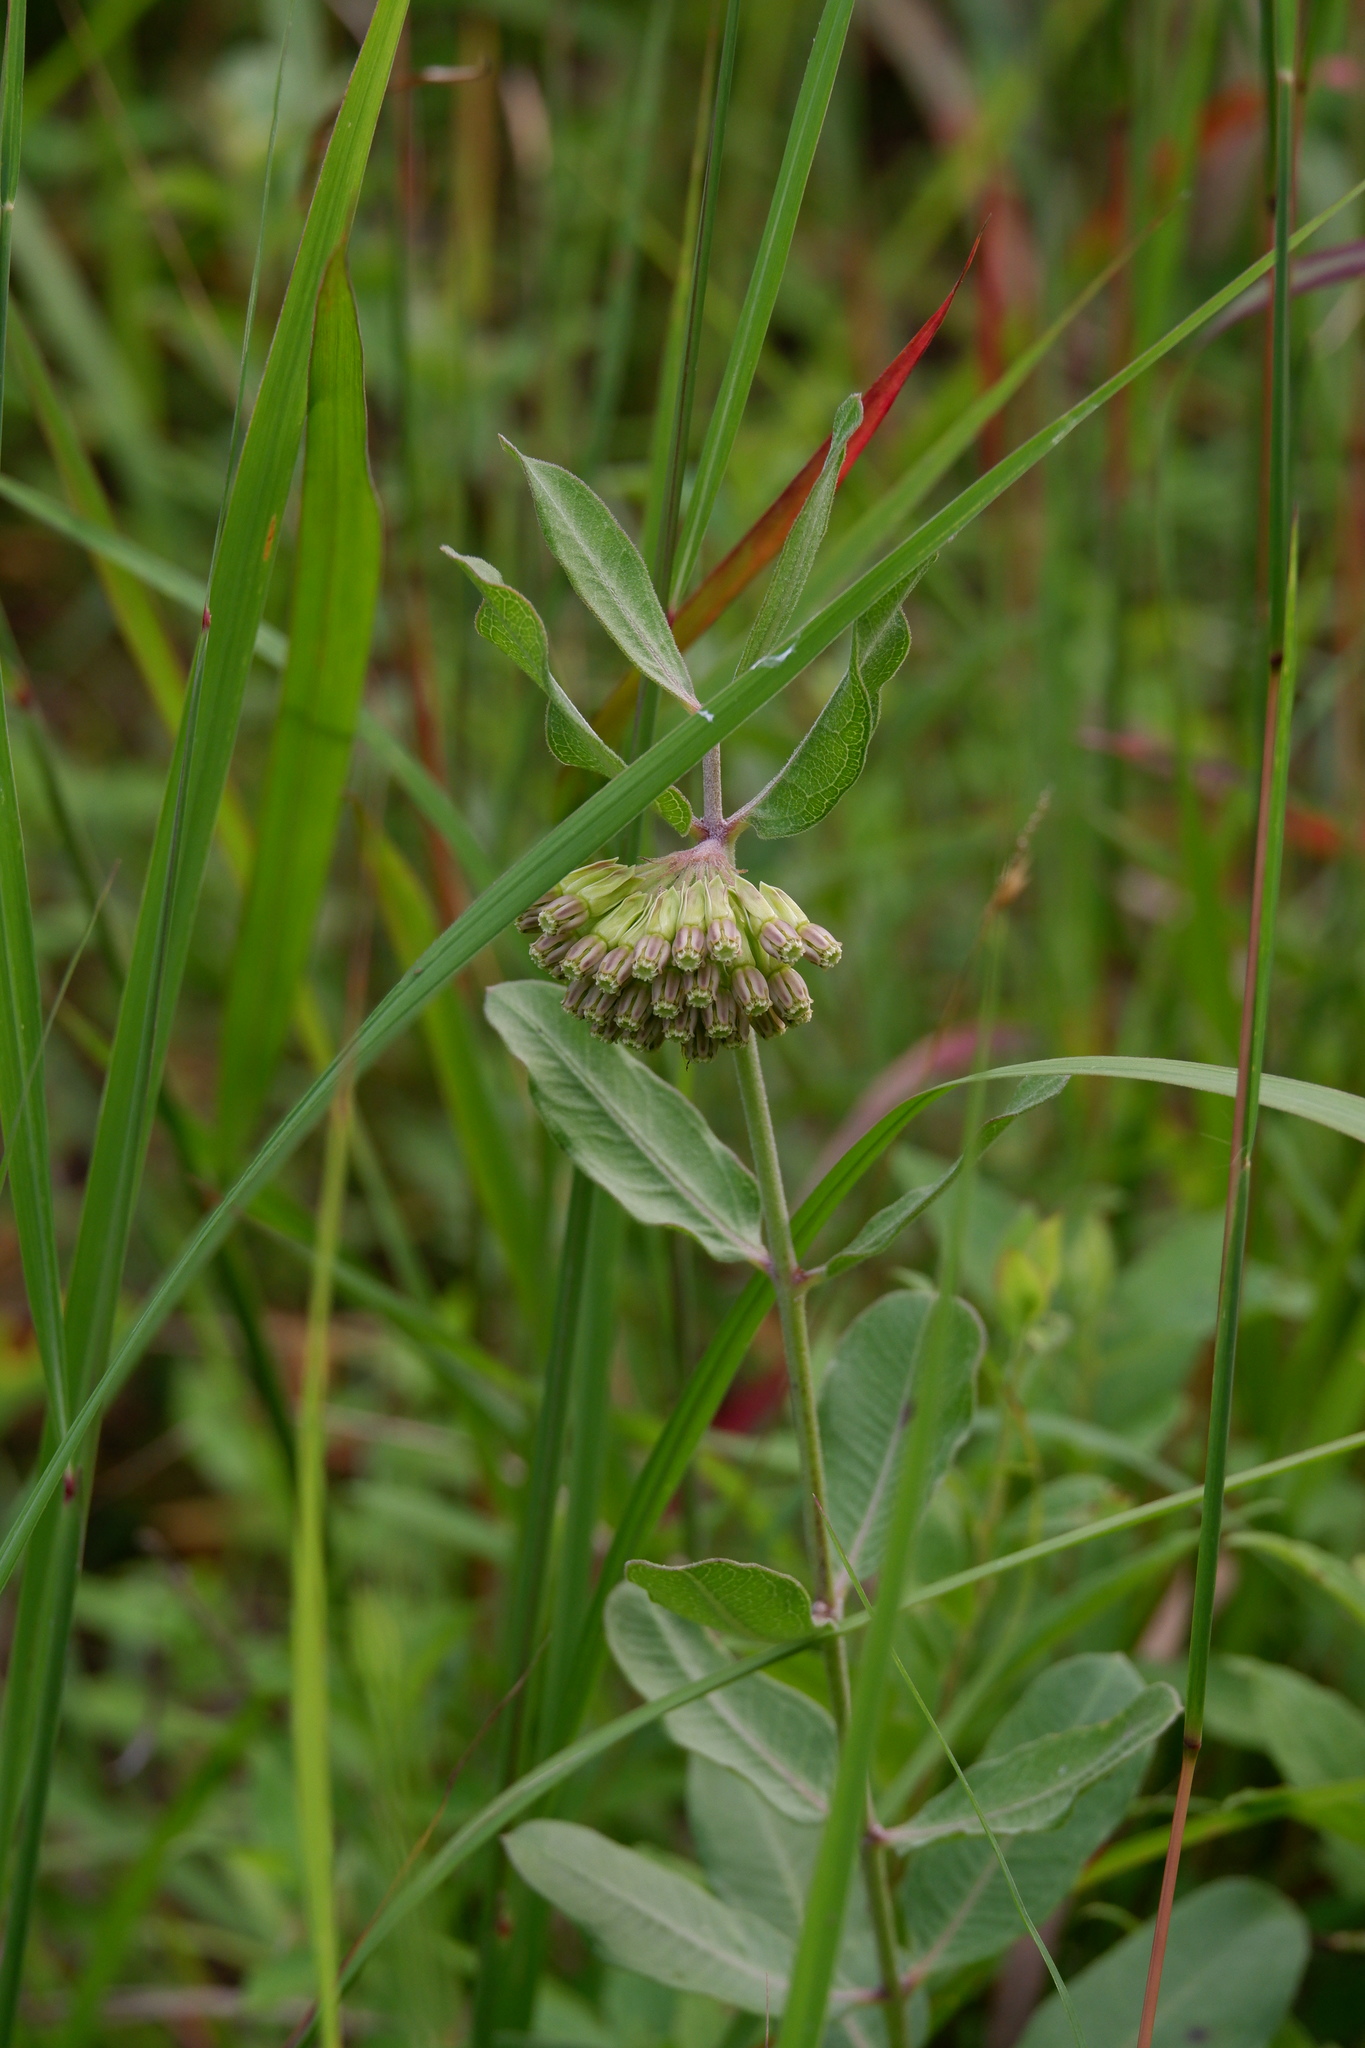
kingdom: Plantae
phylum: Tracheophyta
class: Magnoliopsida
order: Gentianales
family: Apocynaceae
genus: Asclepias
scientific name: Asclepias viridiflora
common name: Green comet milkweed
